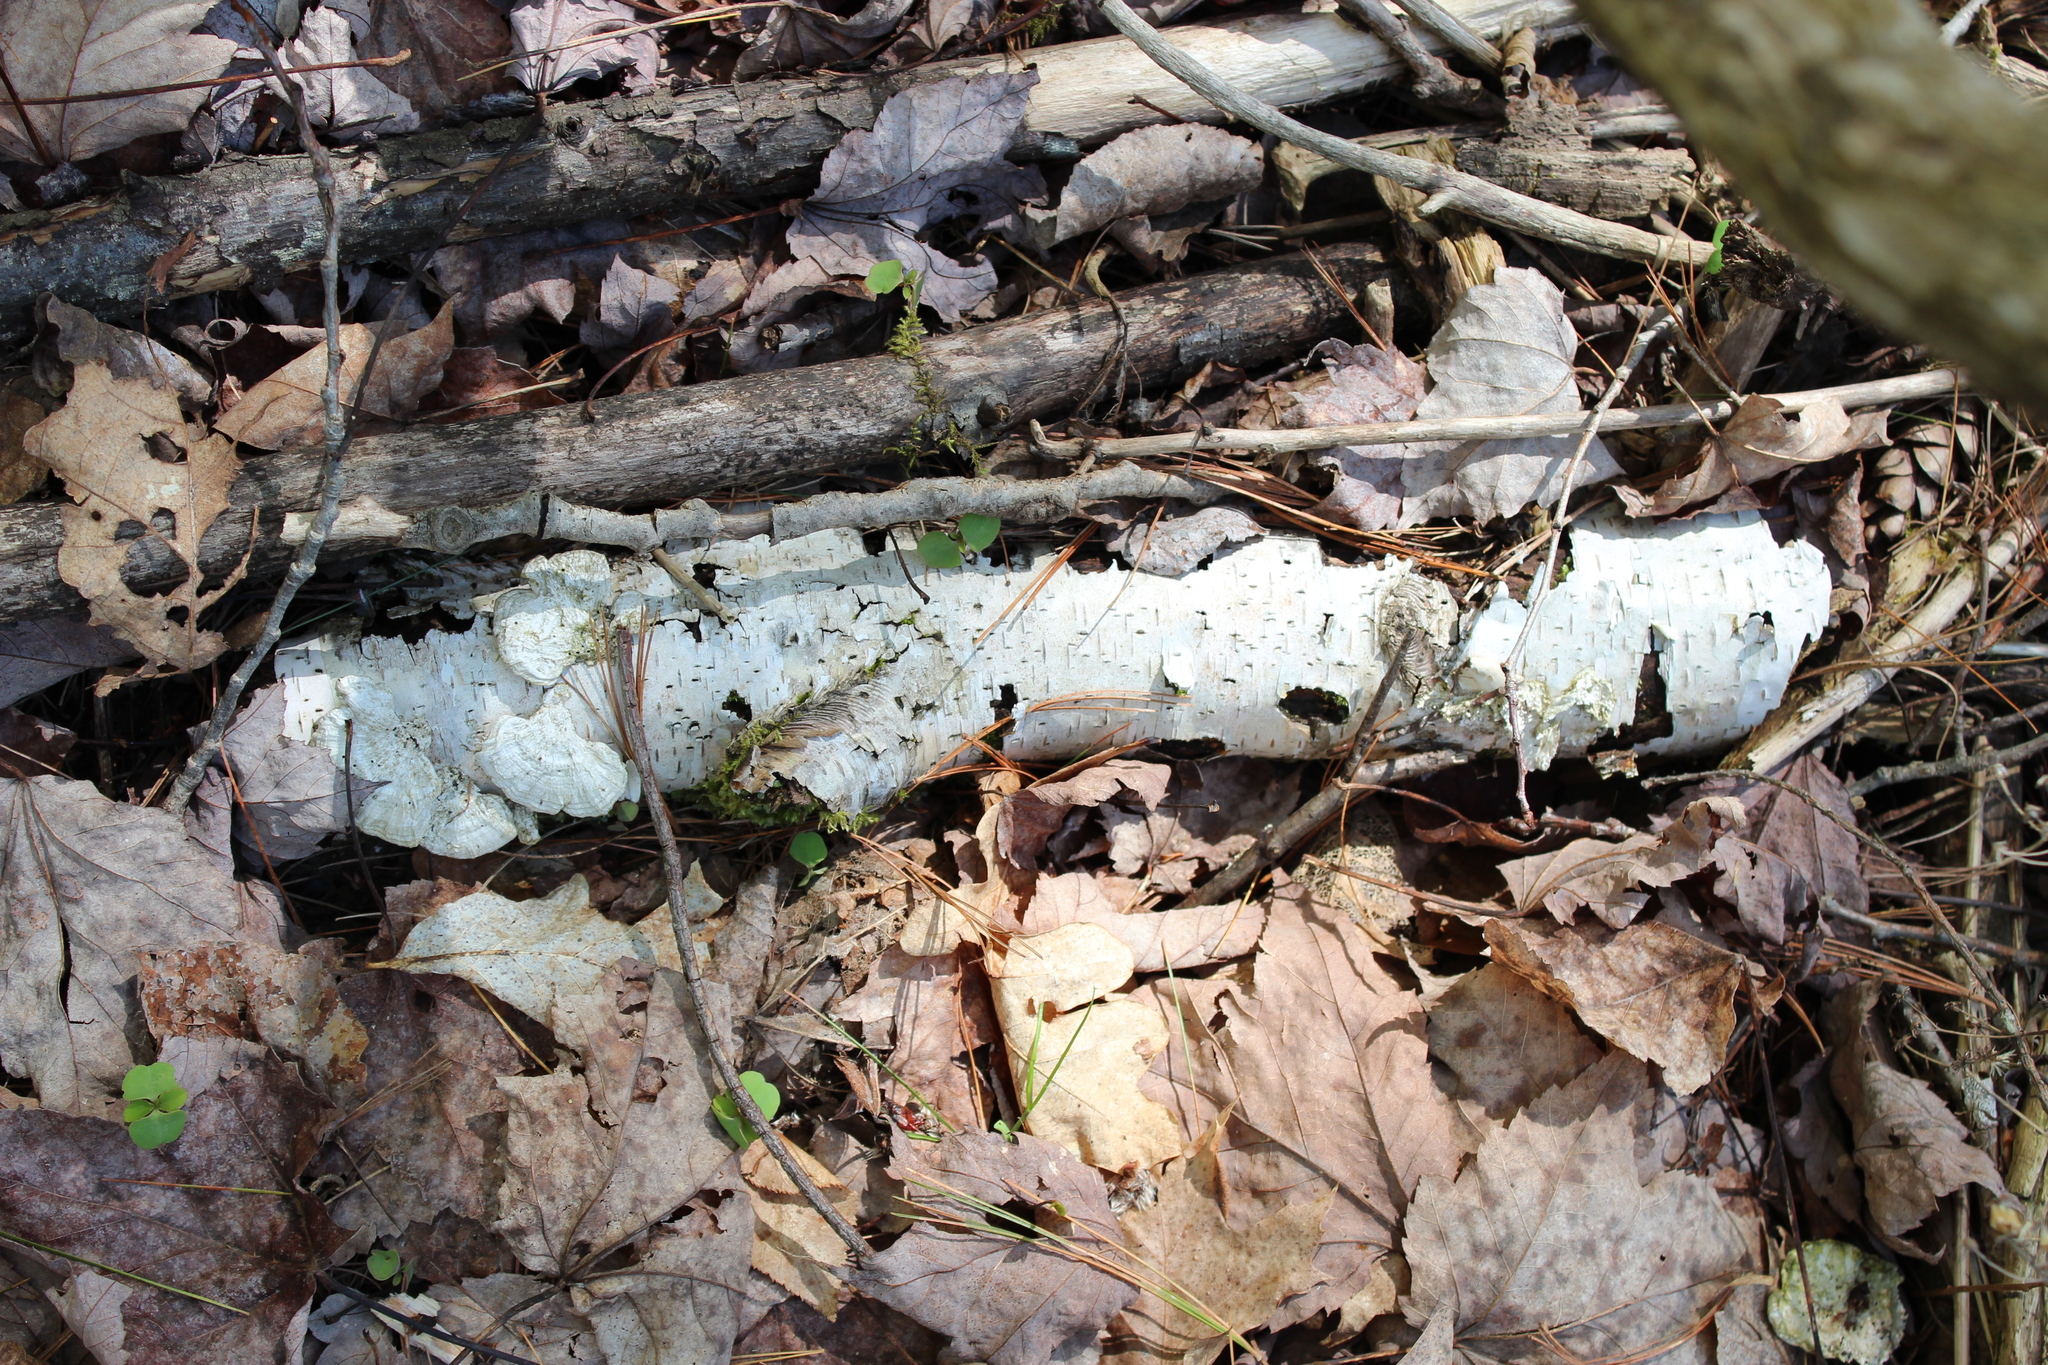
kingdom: Plantae
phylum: Tracheophyta
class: Magnoliopsida
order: Fagales
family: Betulaceae
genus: Betula
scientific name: Betula papyrifera
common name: Paper birch
